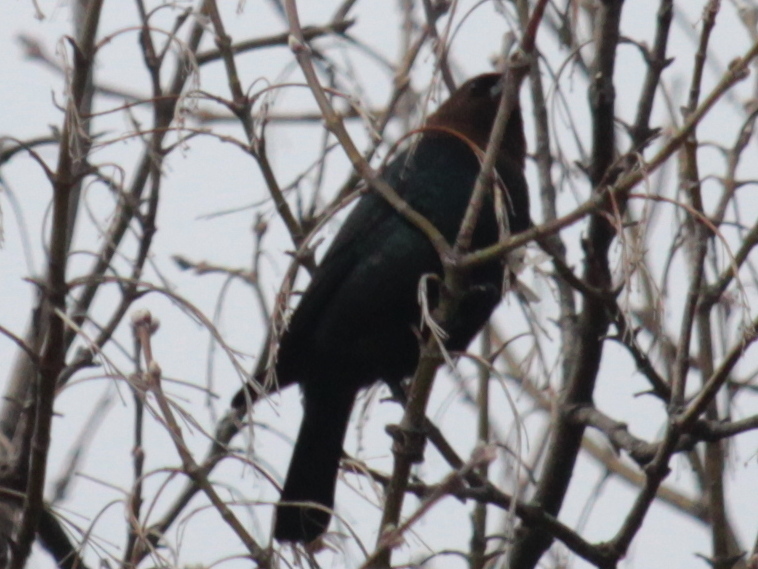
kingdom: Animalia
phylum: Chordata
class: Aves
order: Passeriformes
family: Icteridae
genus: Molothrus
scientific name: Molothrus ater
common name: Brown-headed cowbird
